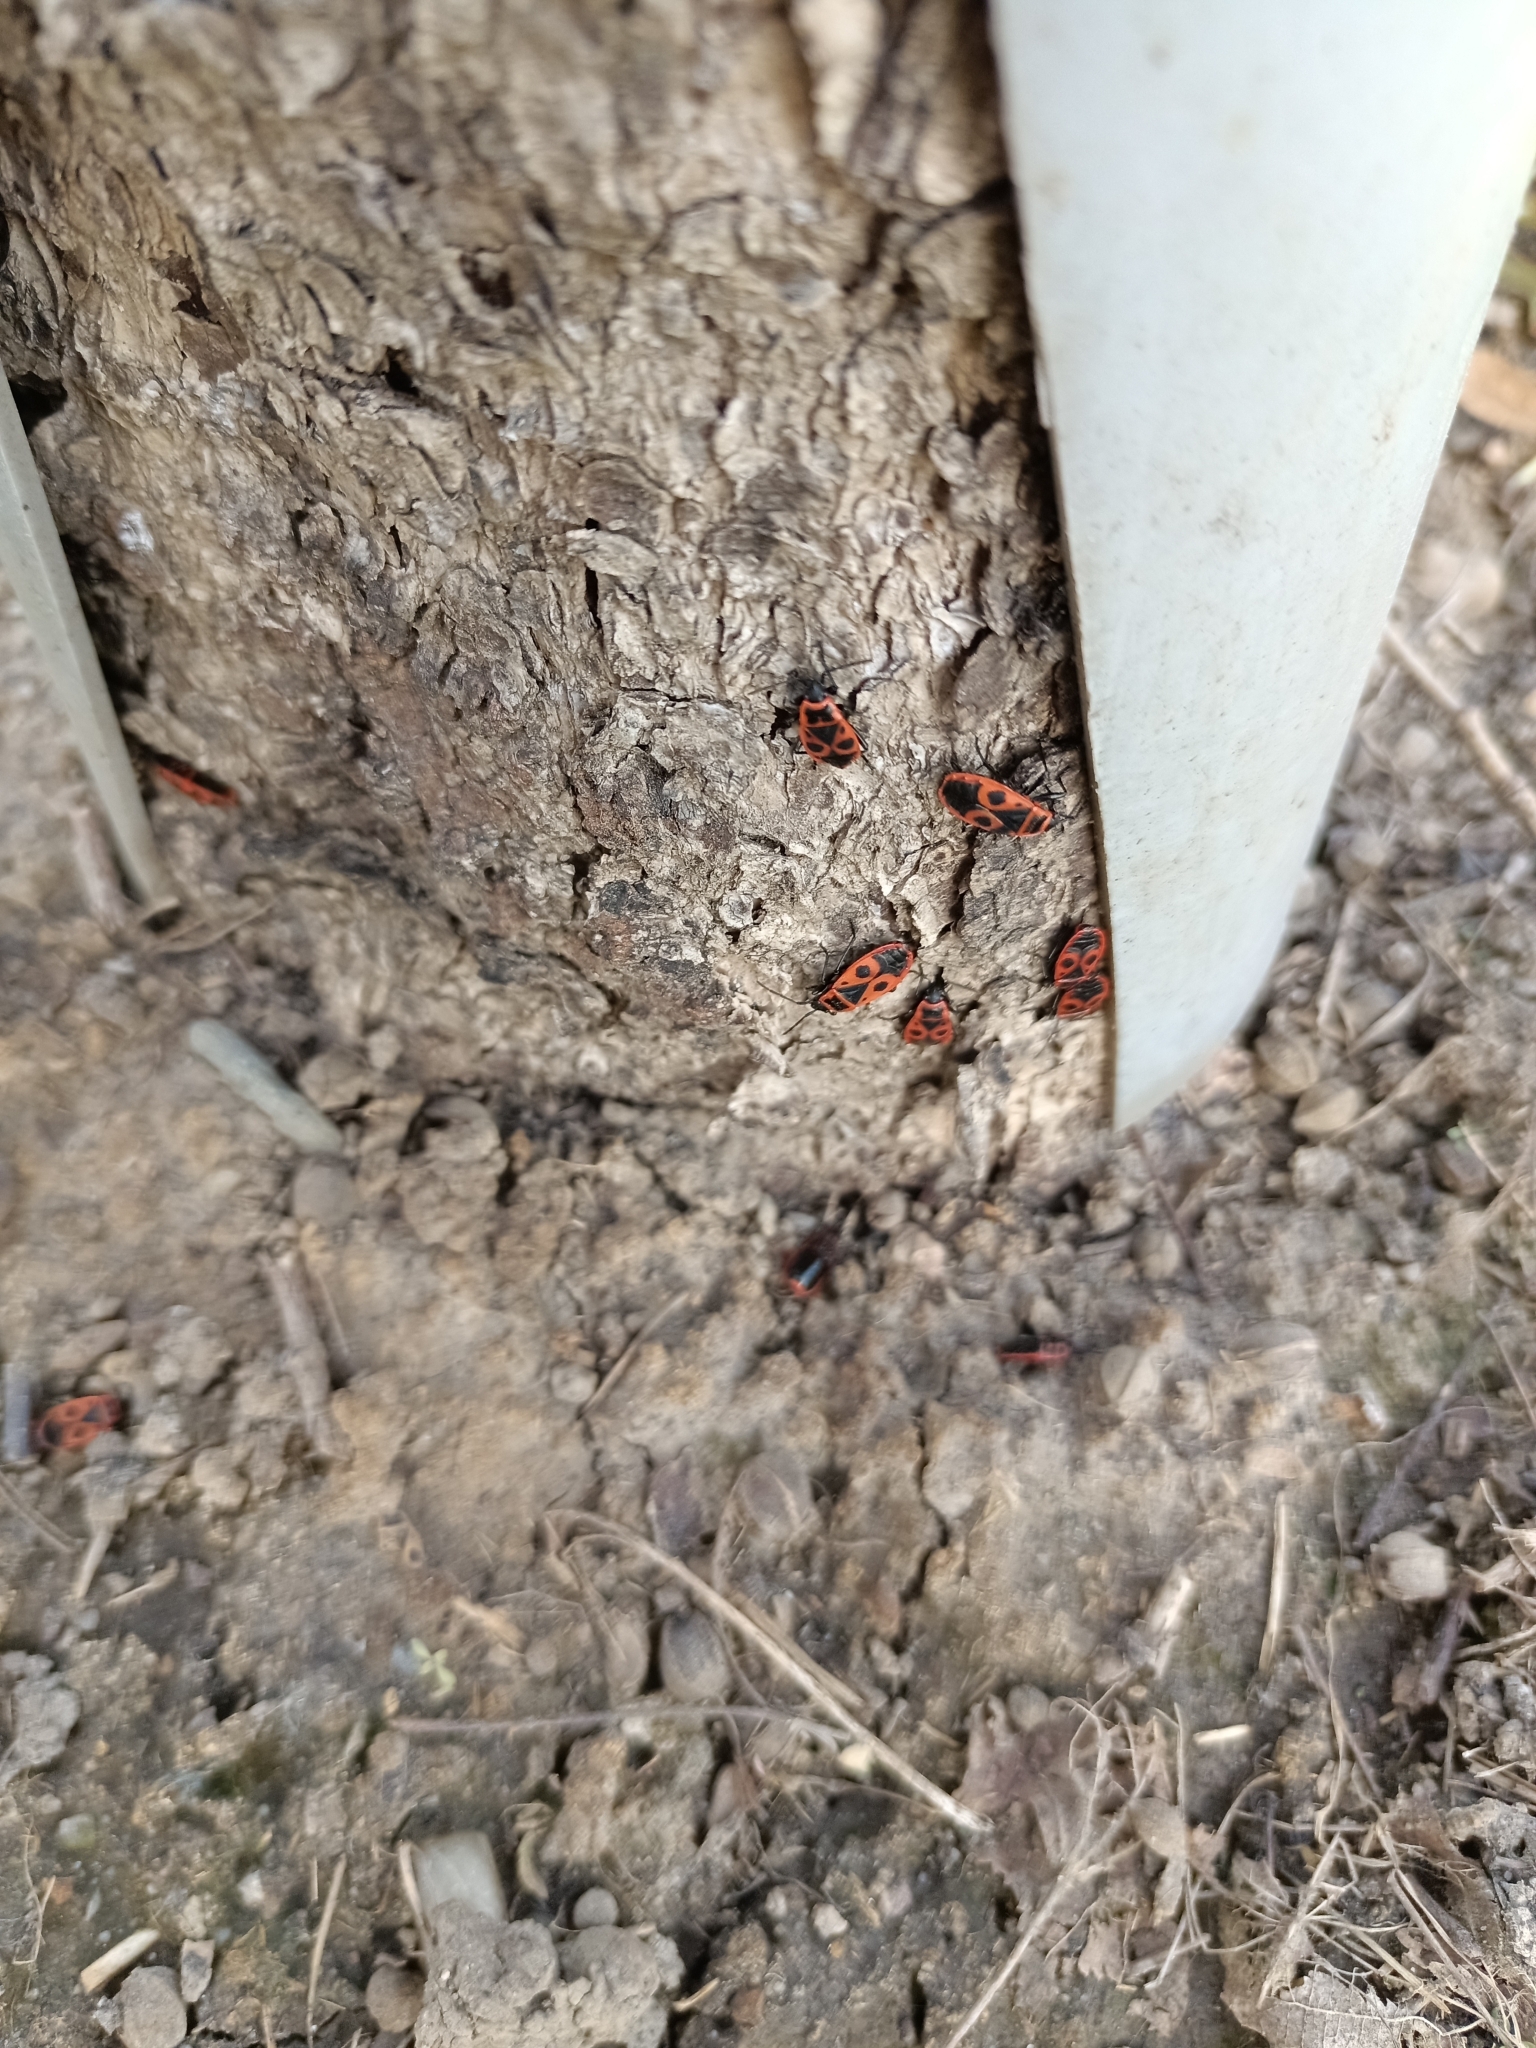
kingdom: Animalia
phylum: Arthropoda
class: Insecta
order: Hemiptera
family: Pyrrhocoridae
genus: Pyrrhocoris
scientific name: Pyrrhocoris apterus
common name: Firebug
